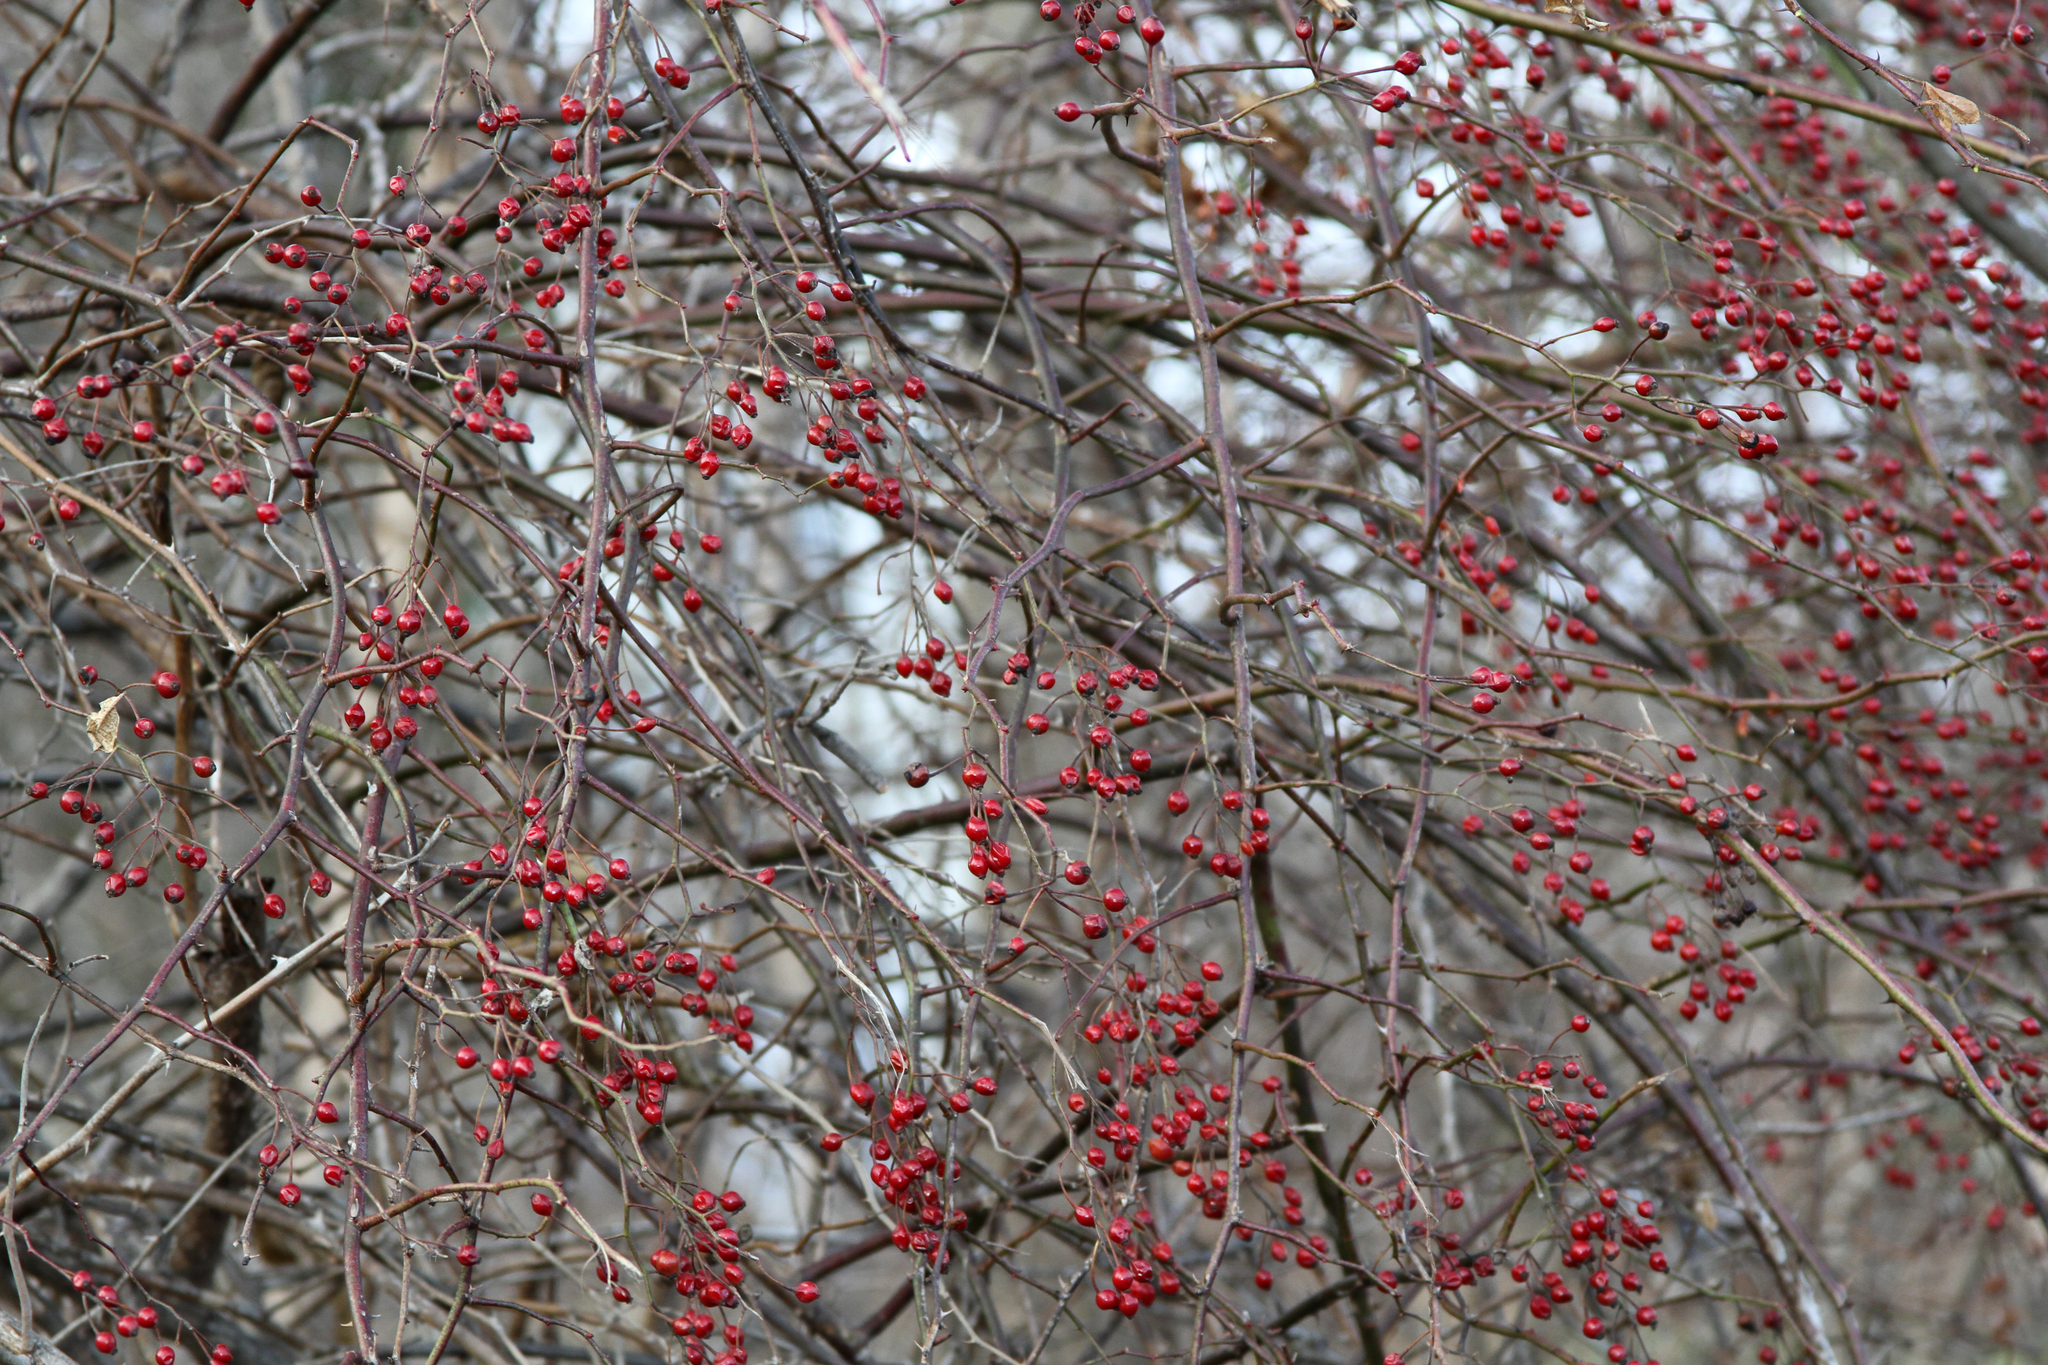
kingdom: Plantae
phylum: Tracheophyta
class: Magnoliopsida
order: Rosales
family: Rosaceae
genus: Rosa
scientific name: Rosa multiflora
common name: Multiflora rose
